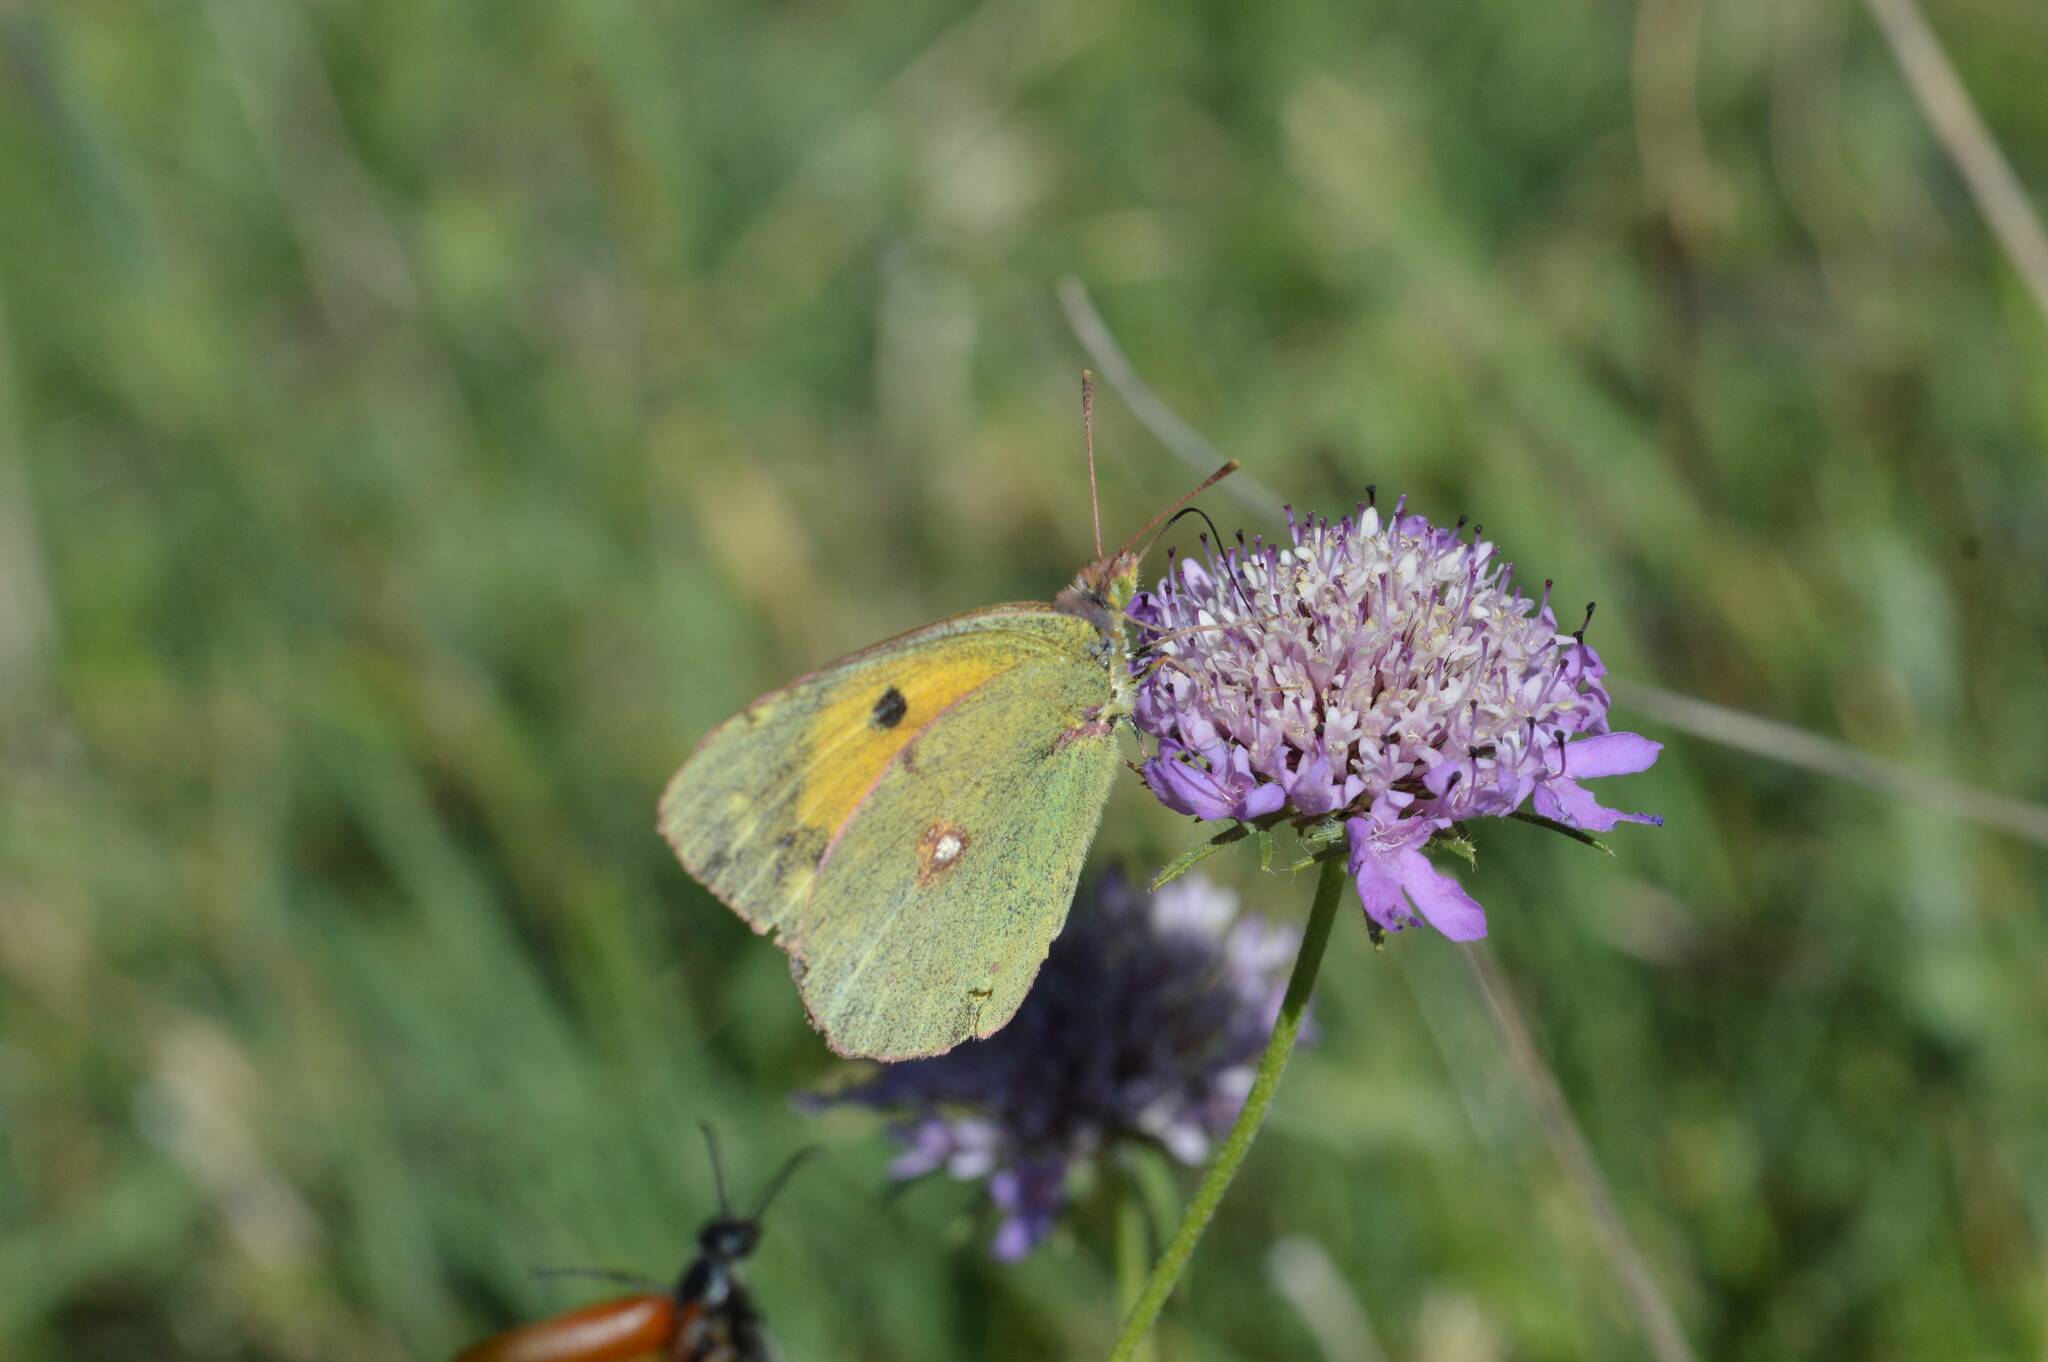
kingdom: Animalia
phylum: Arthropoda
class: Insecta
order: Lepidoptera
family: Pieridae
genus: Colias
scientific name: Colias croceus
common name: Clouded yellow
